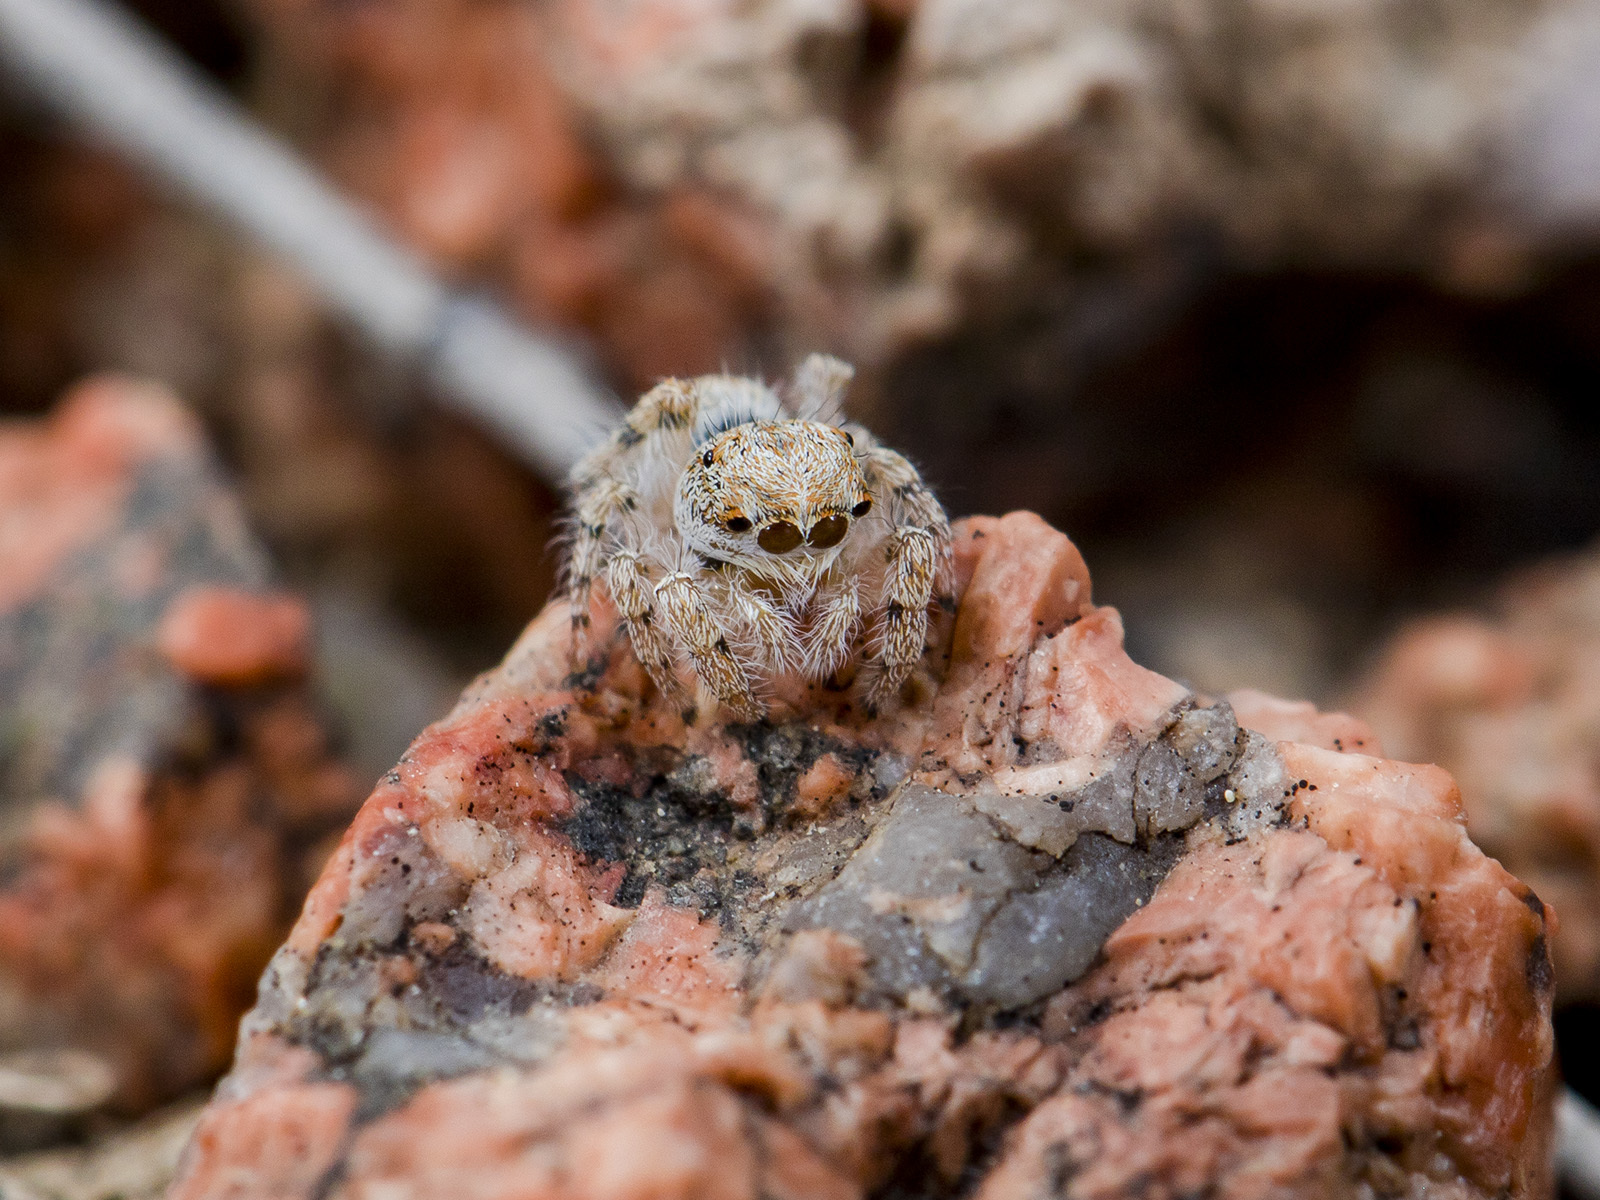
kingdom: Animalia
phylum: Arthropoda
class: Arachnida
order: Araneae
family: Salticidae
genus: Yllenus
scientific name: Yllenus zyuzini
